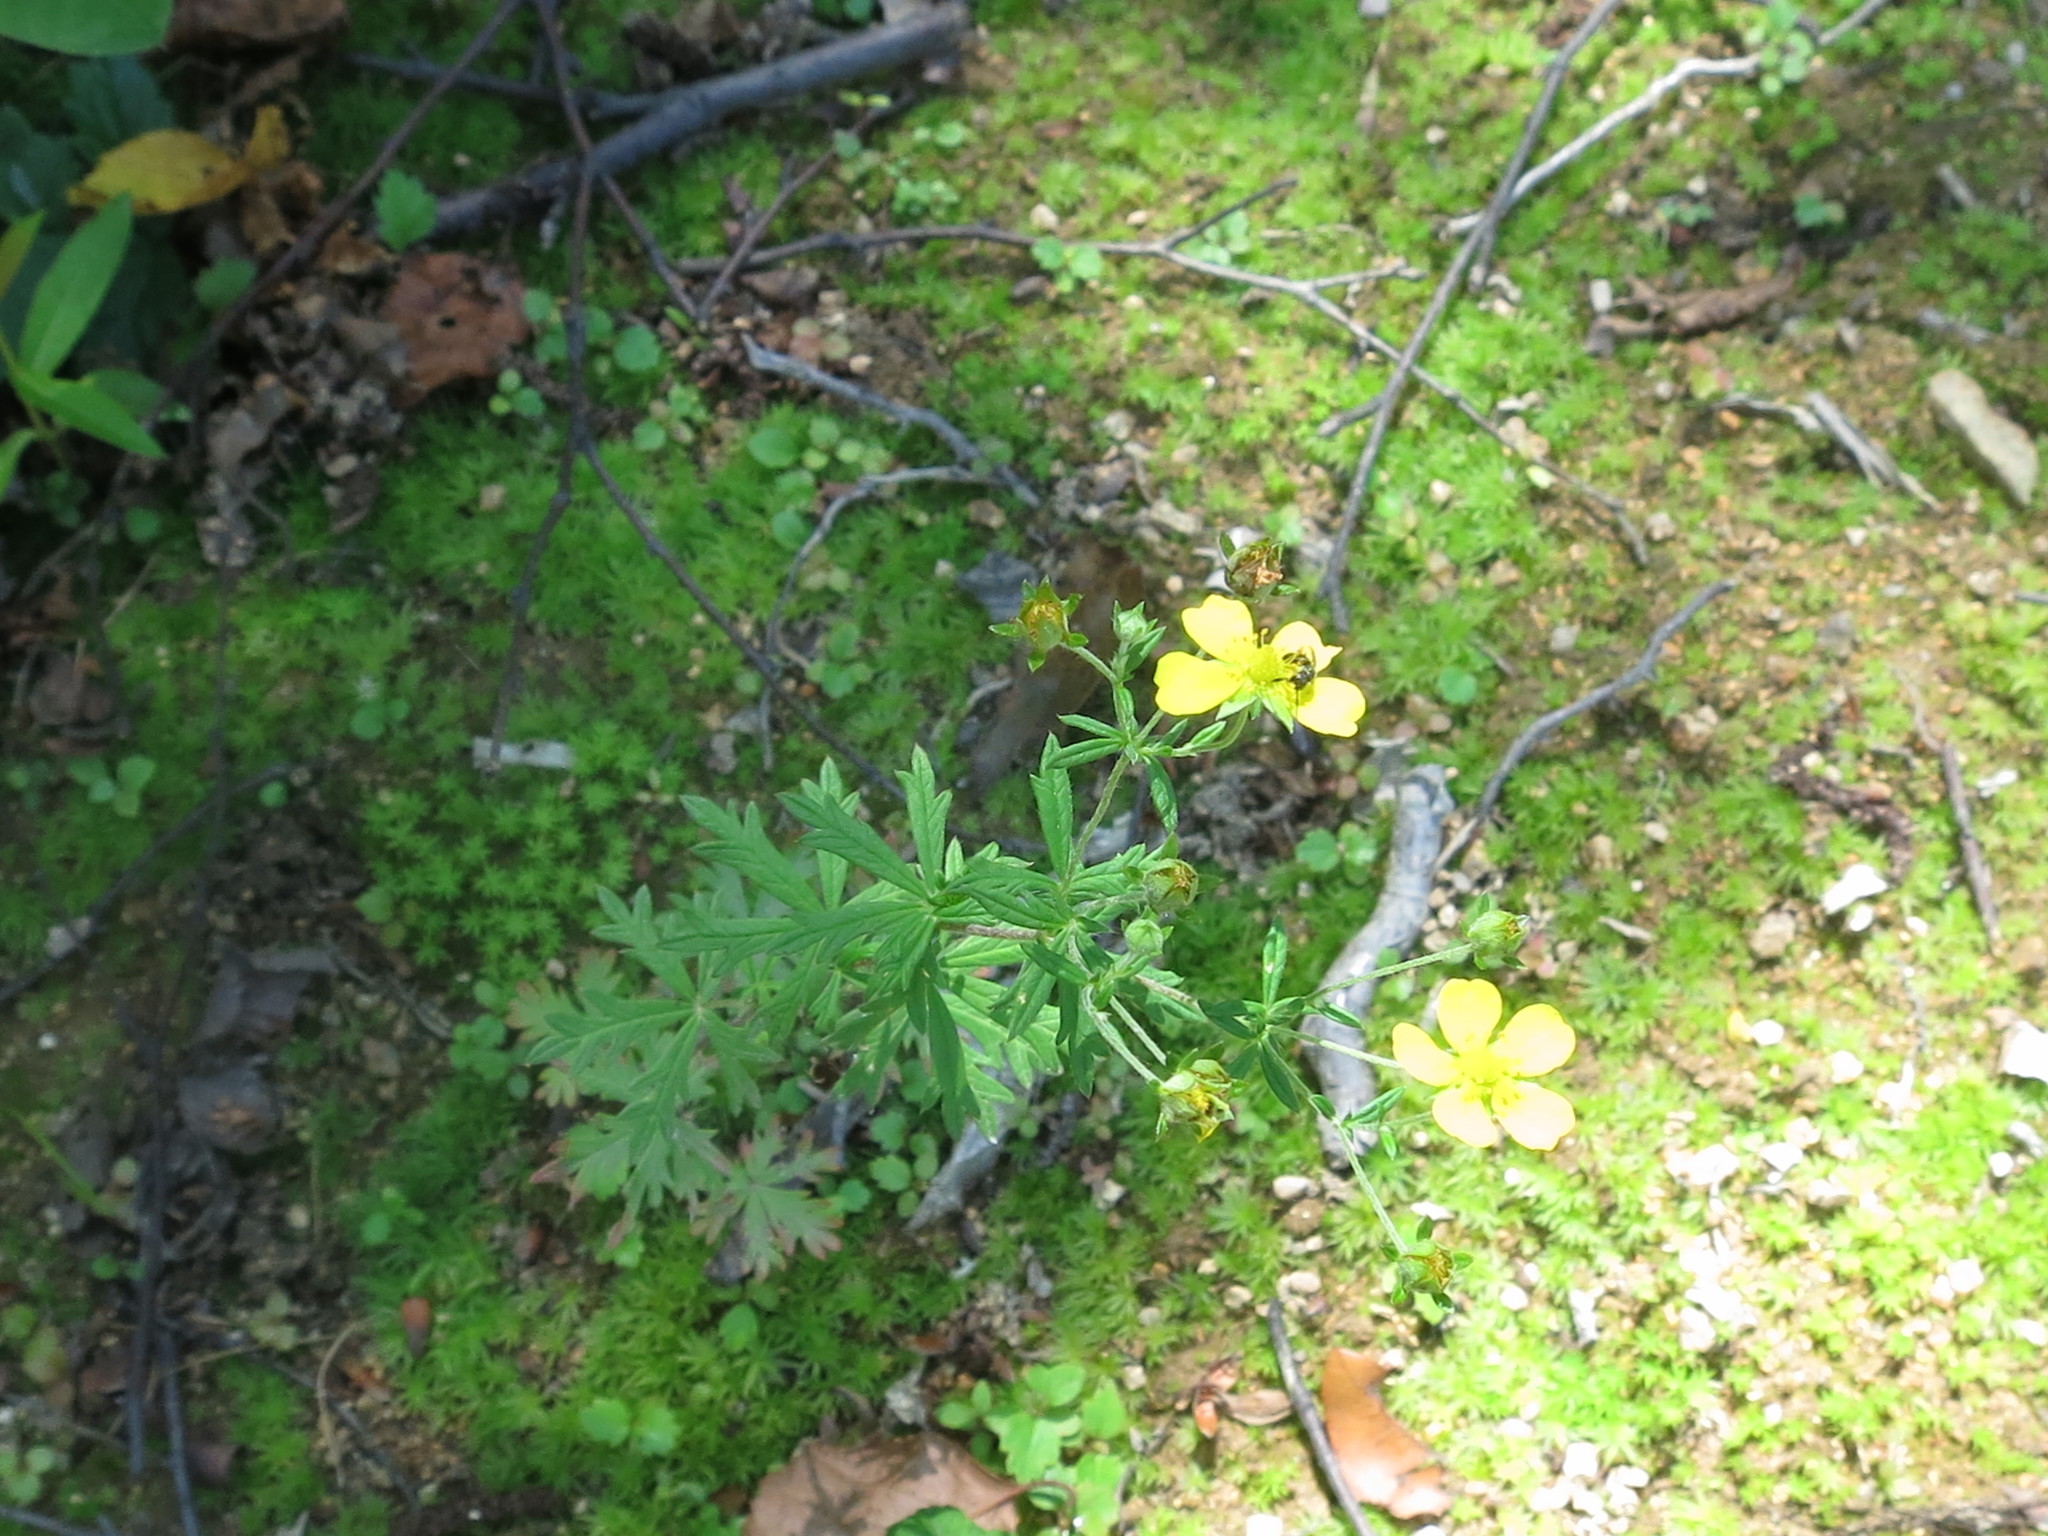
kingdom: Plantae
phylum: Tracheophyta
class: Magnoliopsida
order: Rosales
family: Rosaceae
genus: Potentilla
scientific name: Potentilla argentea
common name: Hoary cinquefoil
